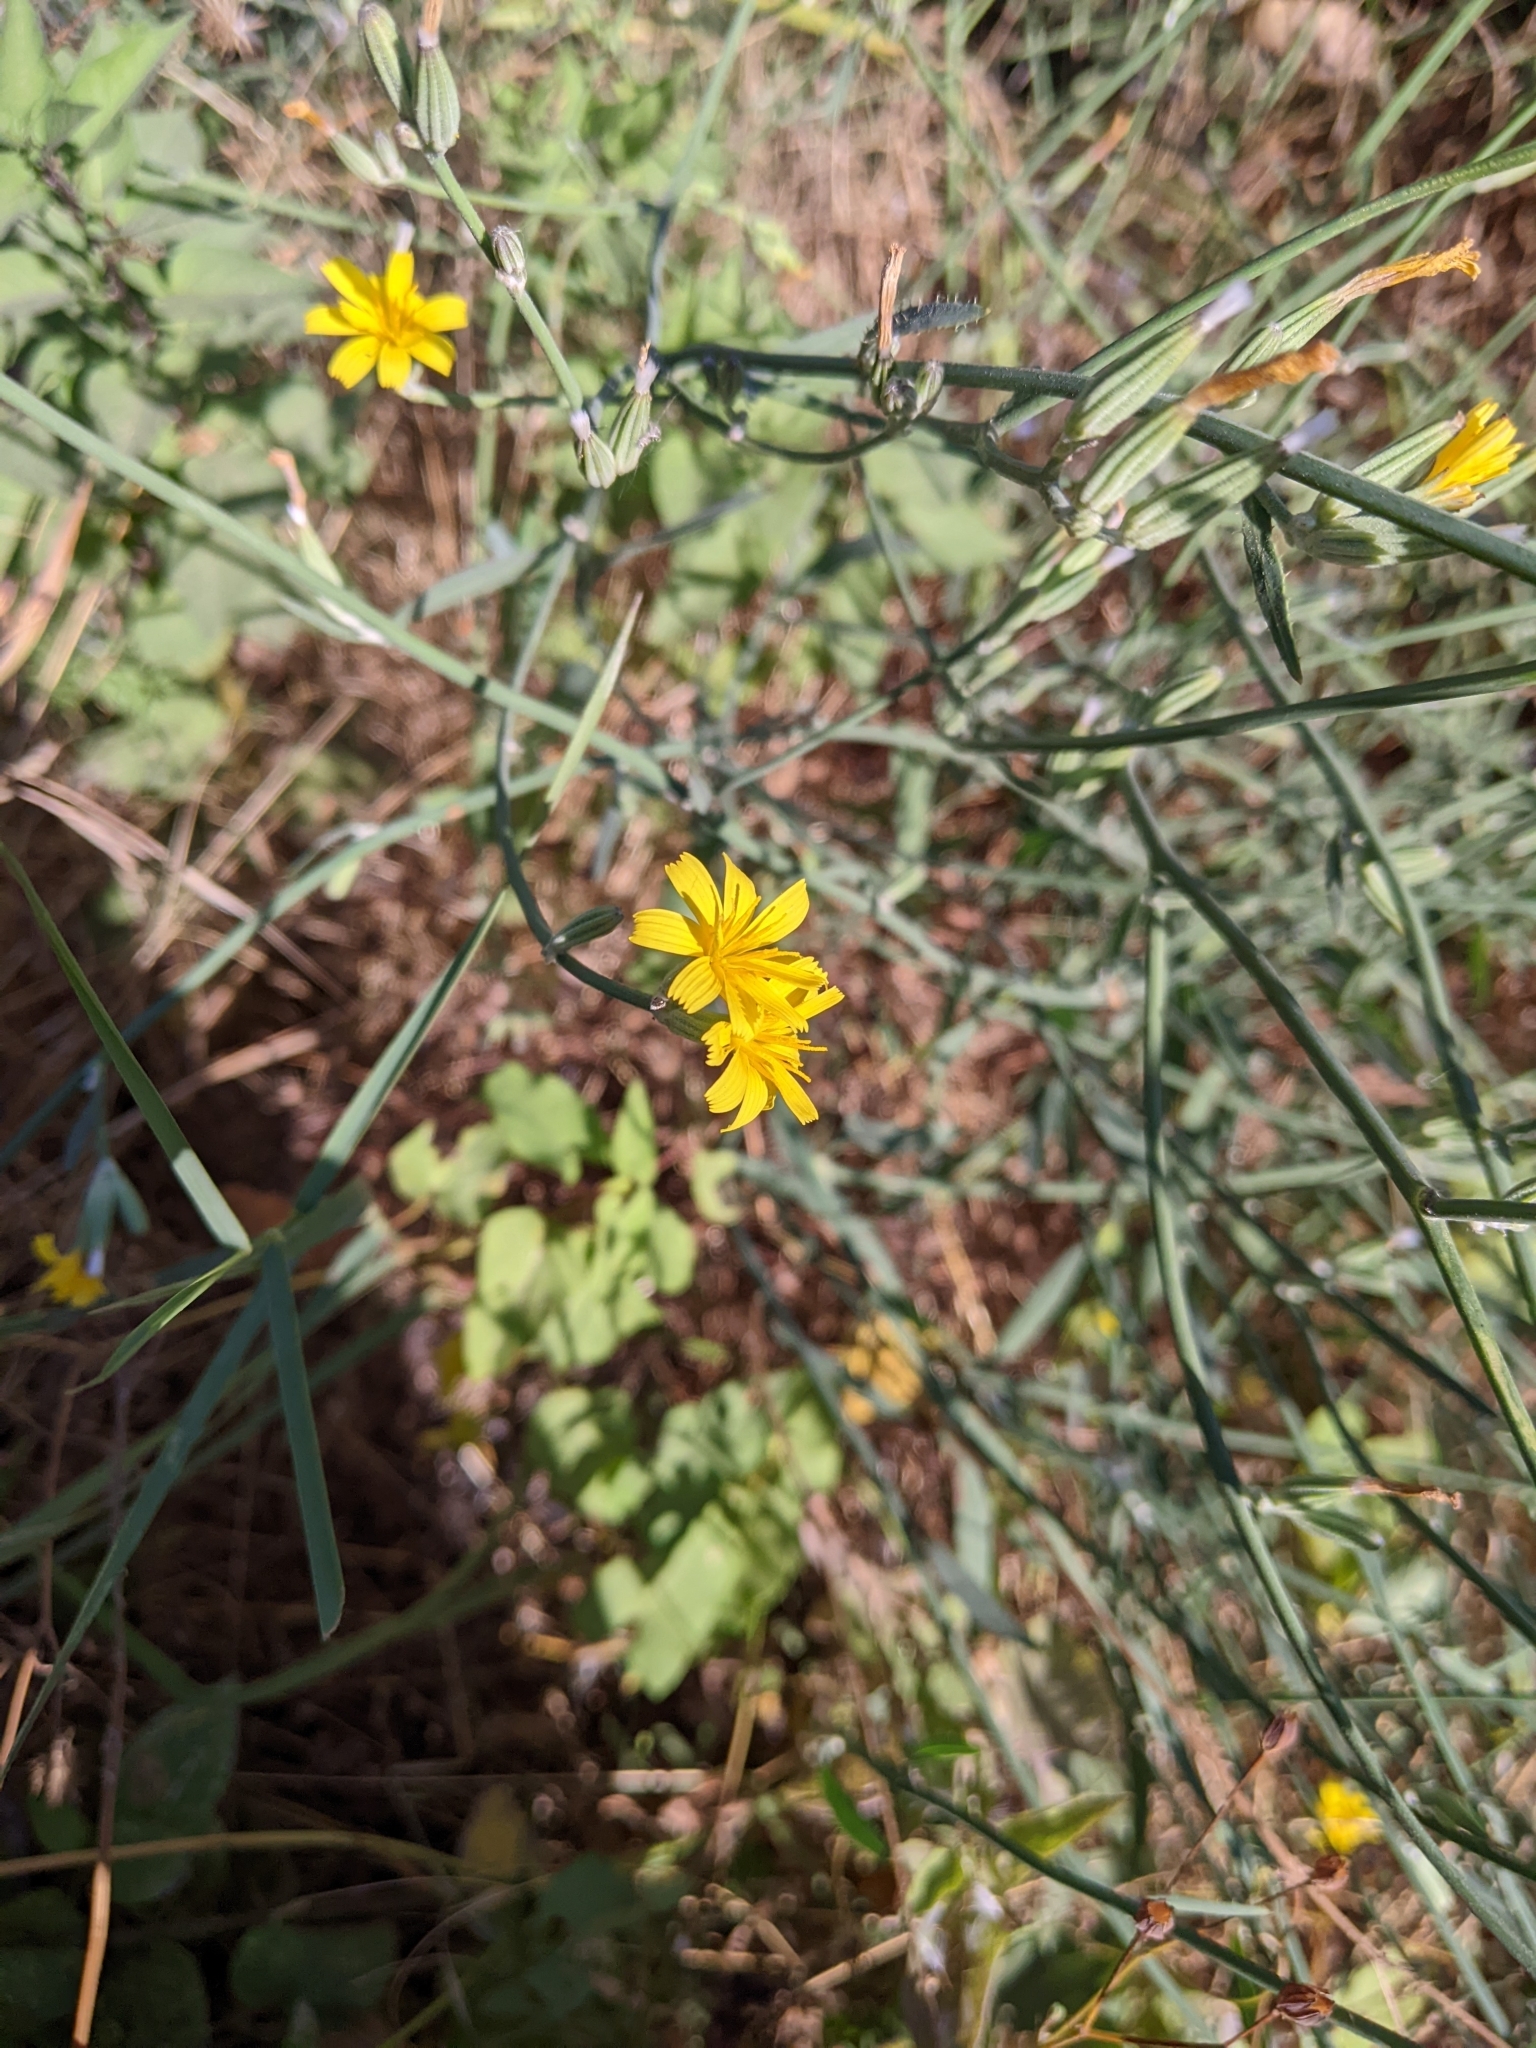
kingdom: Plantae
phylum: Tracheophyta
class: Magnoliopsida
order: Asterales
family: Asteraceae
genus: Chondrilla
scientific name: Chondrilla juncea
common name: Skeleton weed
